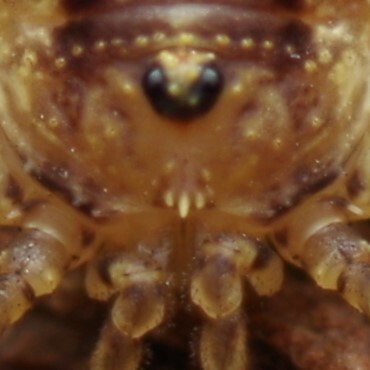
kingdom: Animalia
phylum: Arthropoda
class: Arachnida
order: Opiliones
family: Phalangiidae
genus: Oligolophus
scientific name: Oligolophus hansenii
